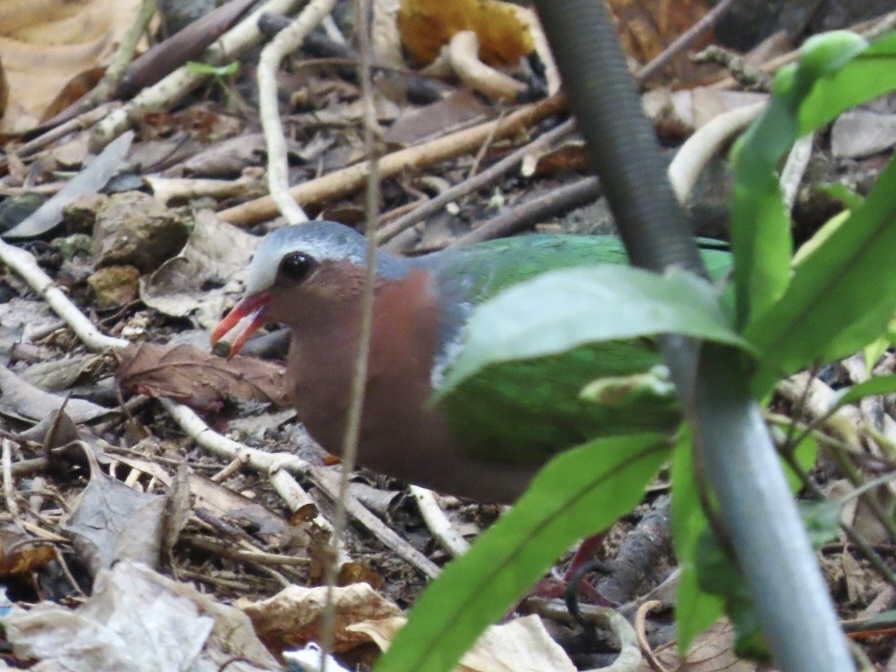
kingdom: Animalia
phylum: Chordata
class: Aves
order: Columbiformes
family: Columbidae
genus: Chalcophaps
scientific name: Chalcophaps indica
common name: Common emerald dove
